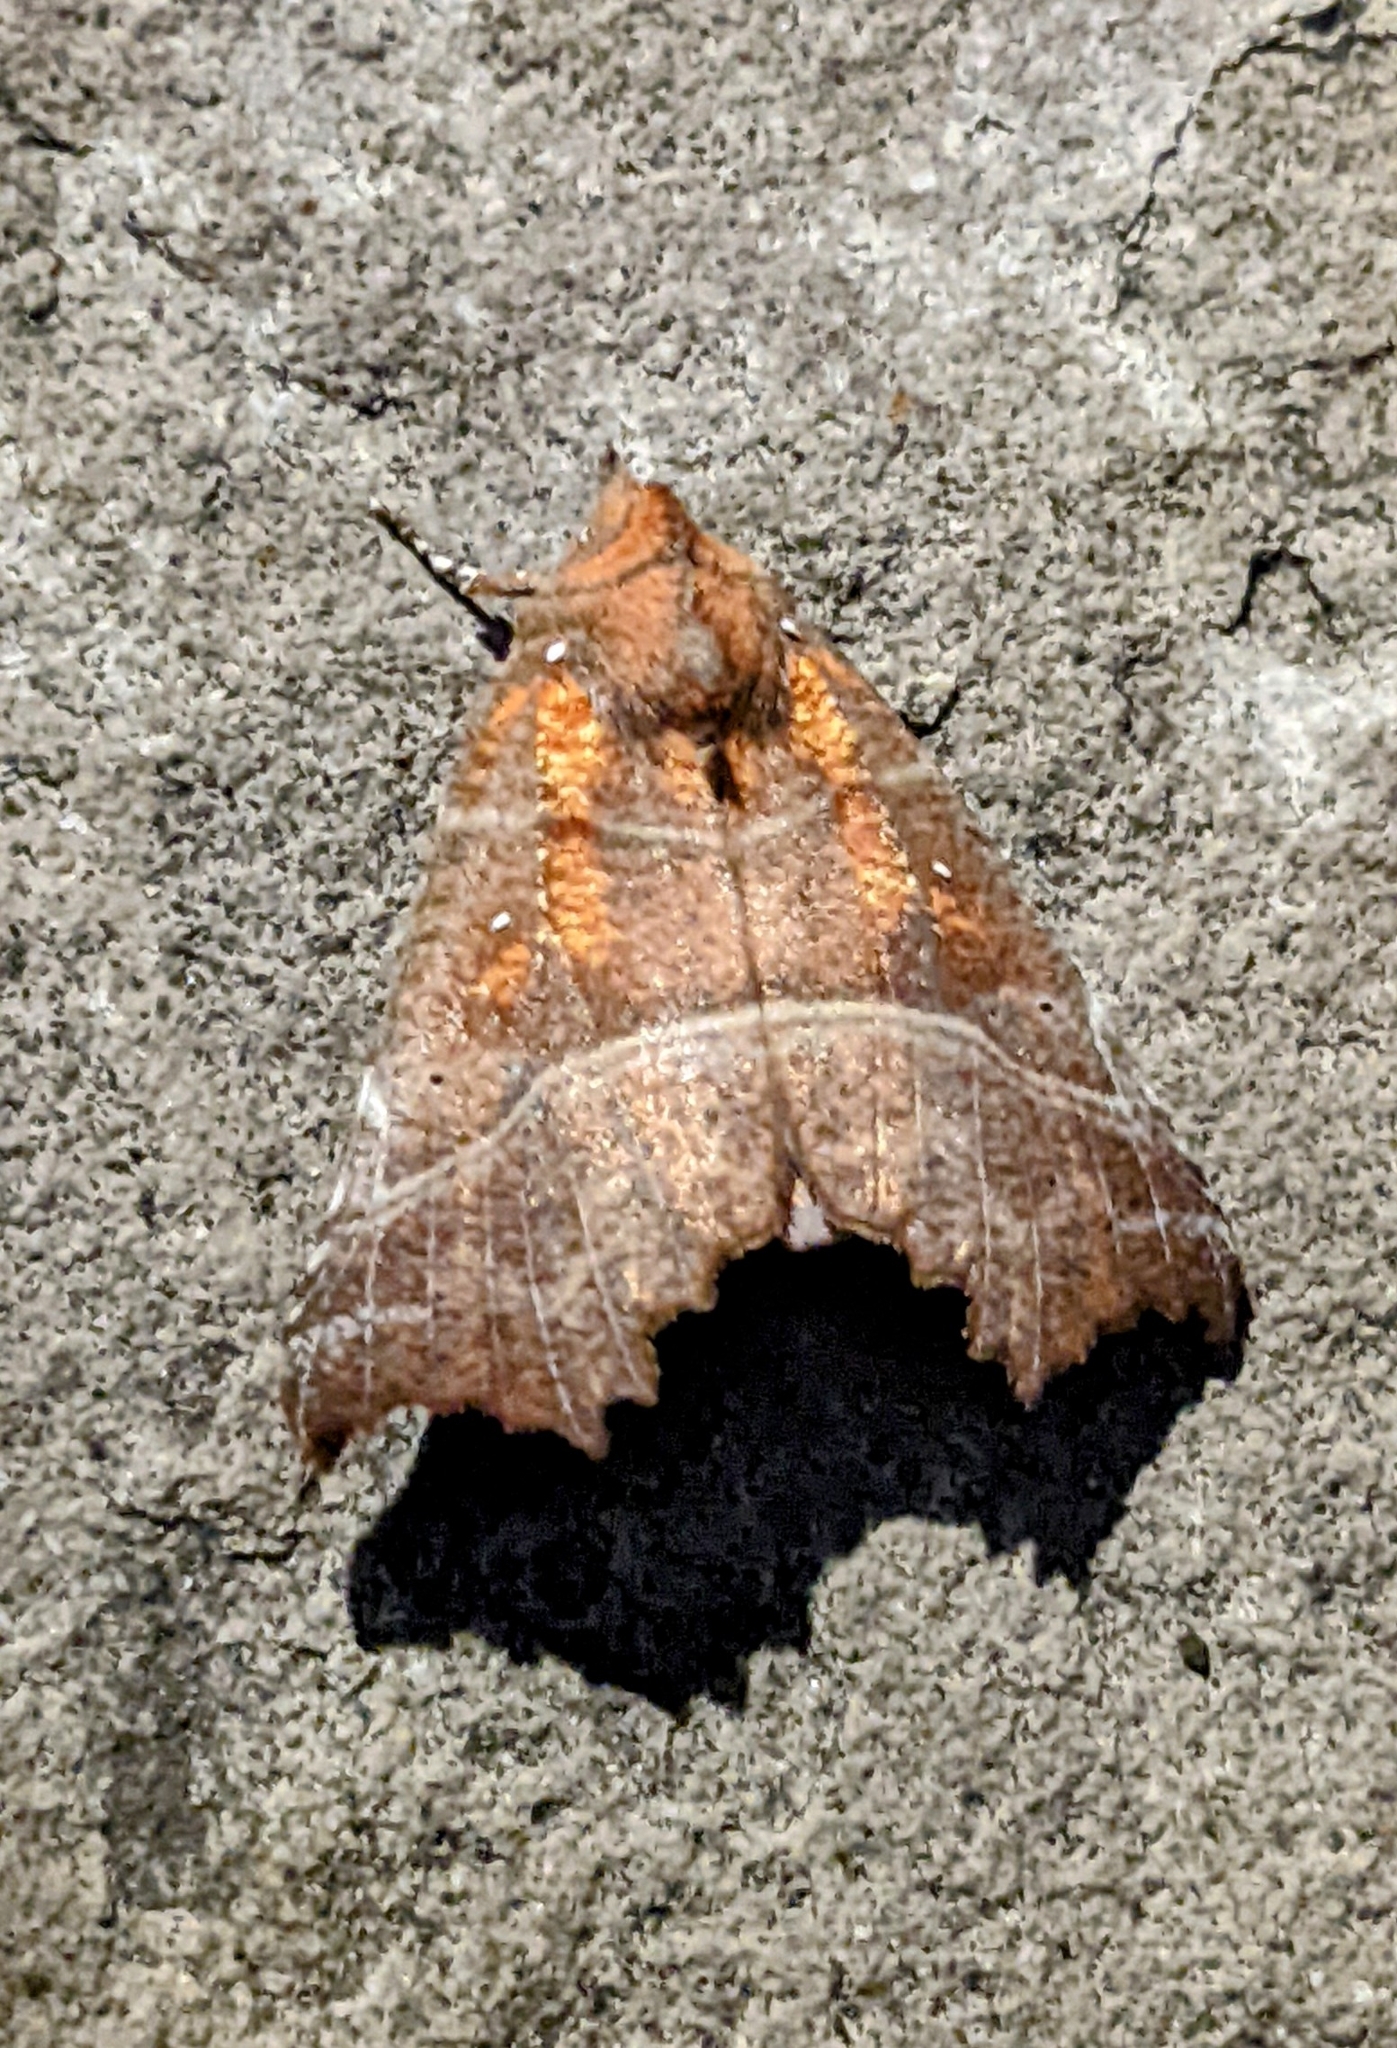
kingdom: Animalia
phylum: Arthropoda
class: Insecta
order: Lepidoptera
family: Erebidae
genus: Scoliopteryx
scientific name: Scoliopteryx libatrix
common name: Herald
